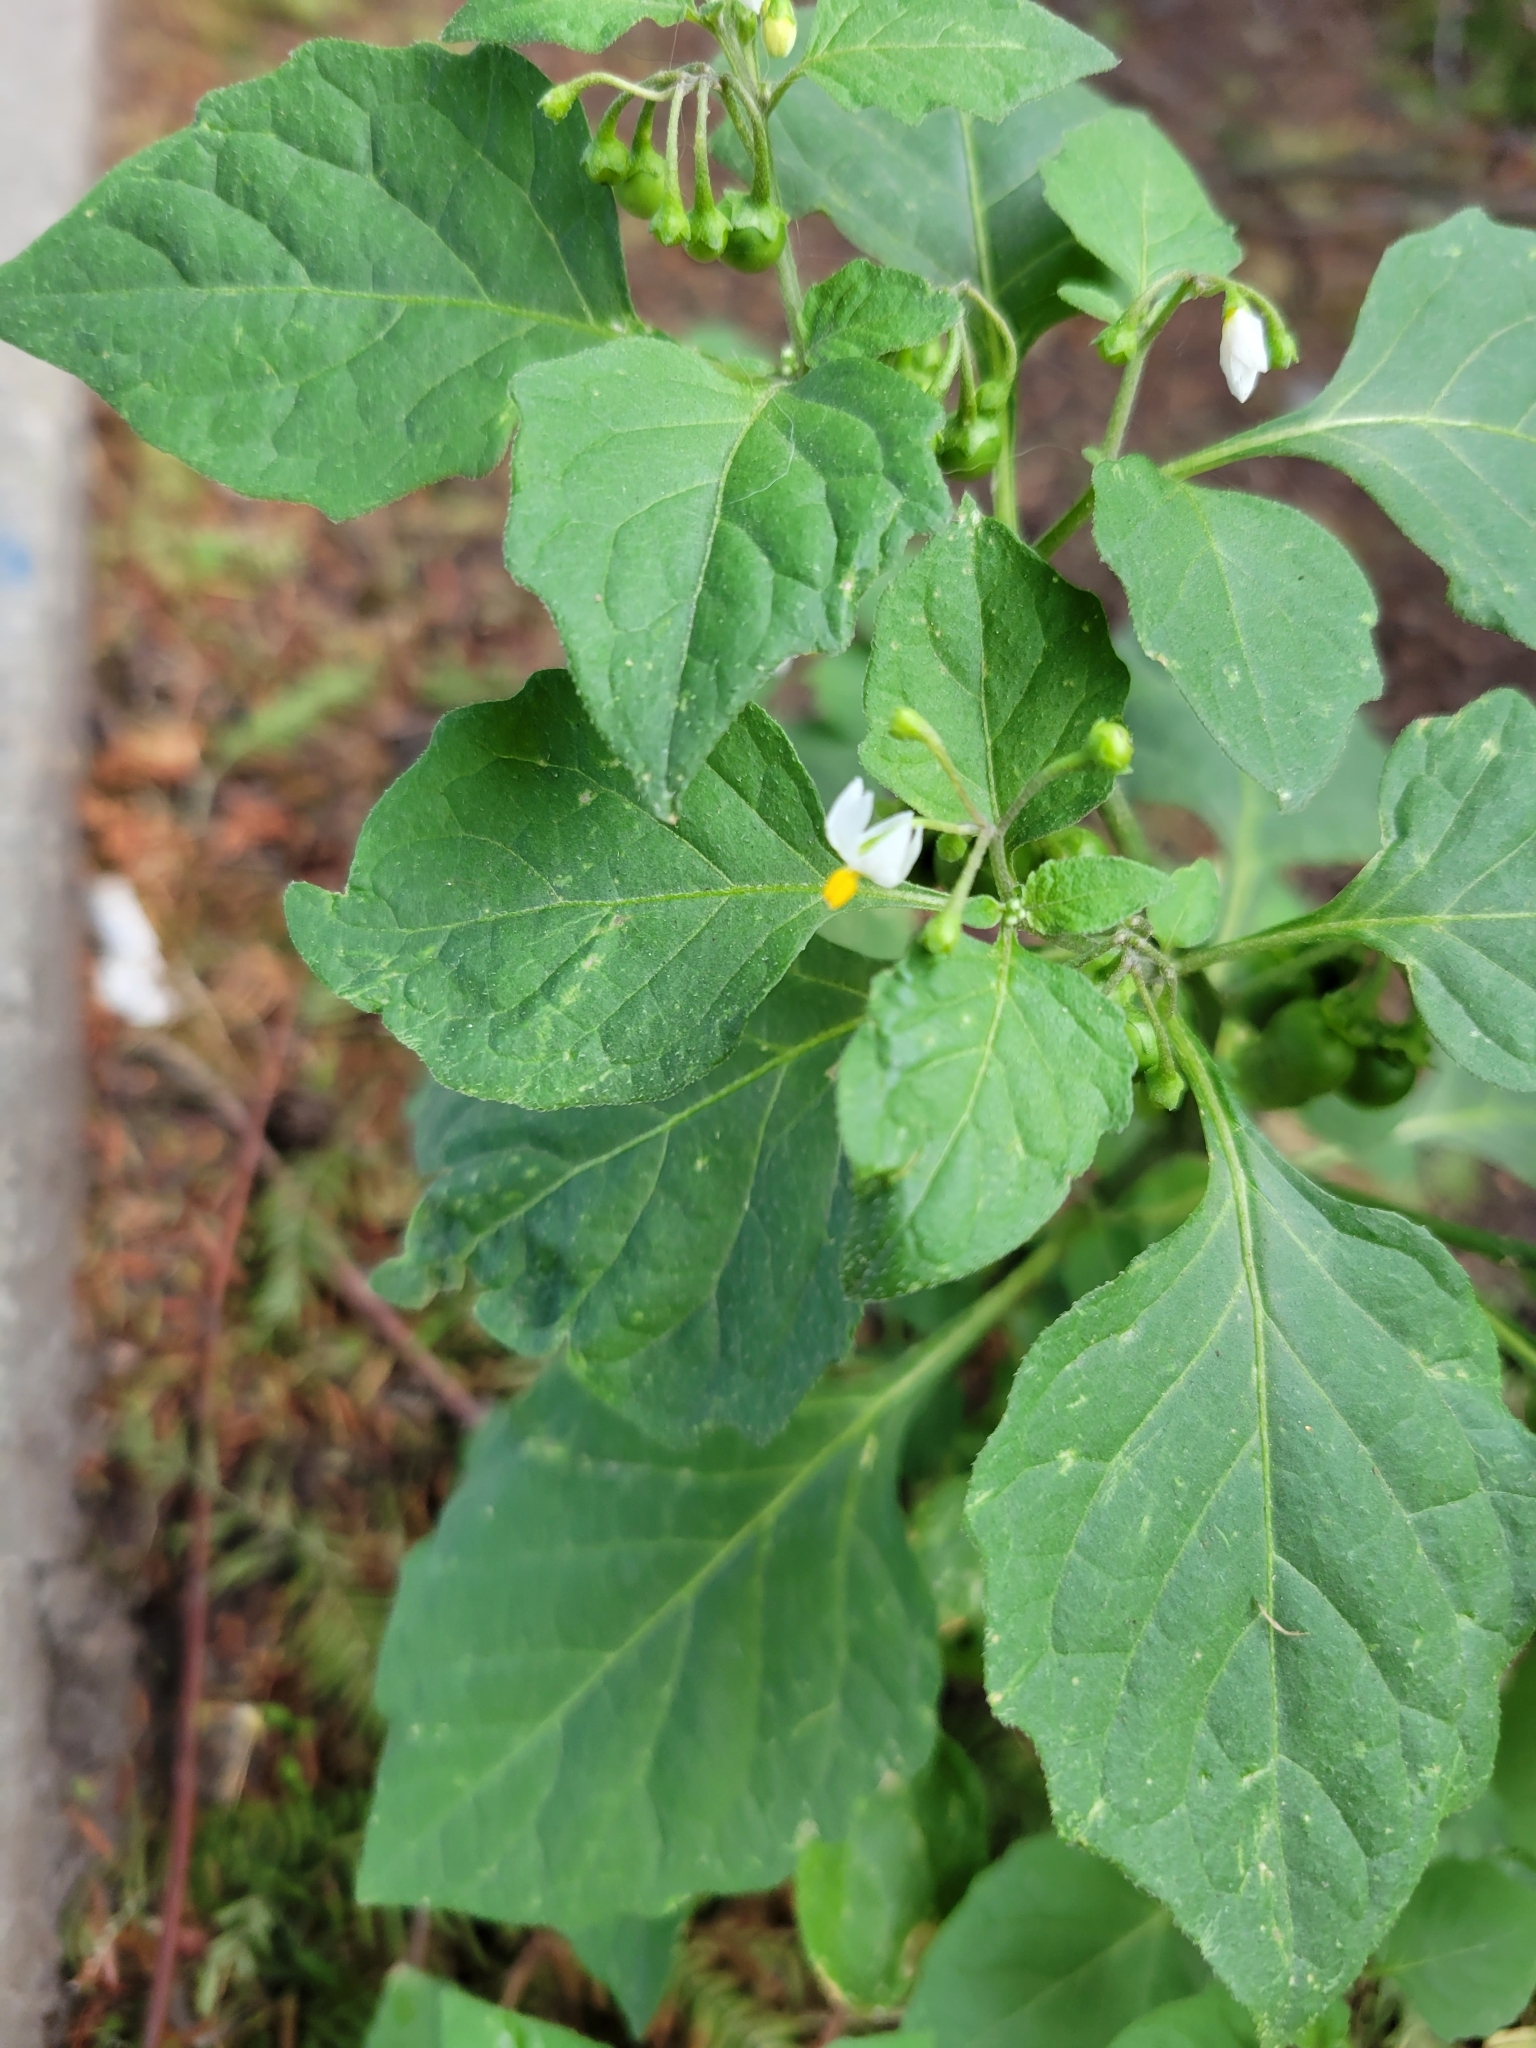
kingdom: Plantae
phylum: Tracheophyta
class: Magnoliopsida
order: Solanales
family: Solanaceae
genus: Solanum
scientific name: Solanum nigrum
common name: Black nightshade
